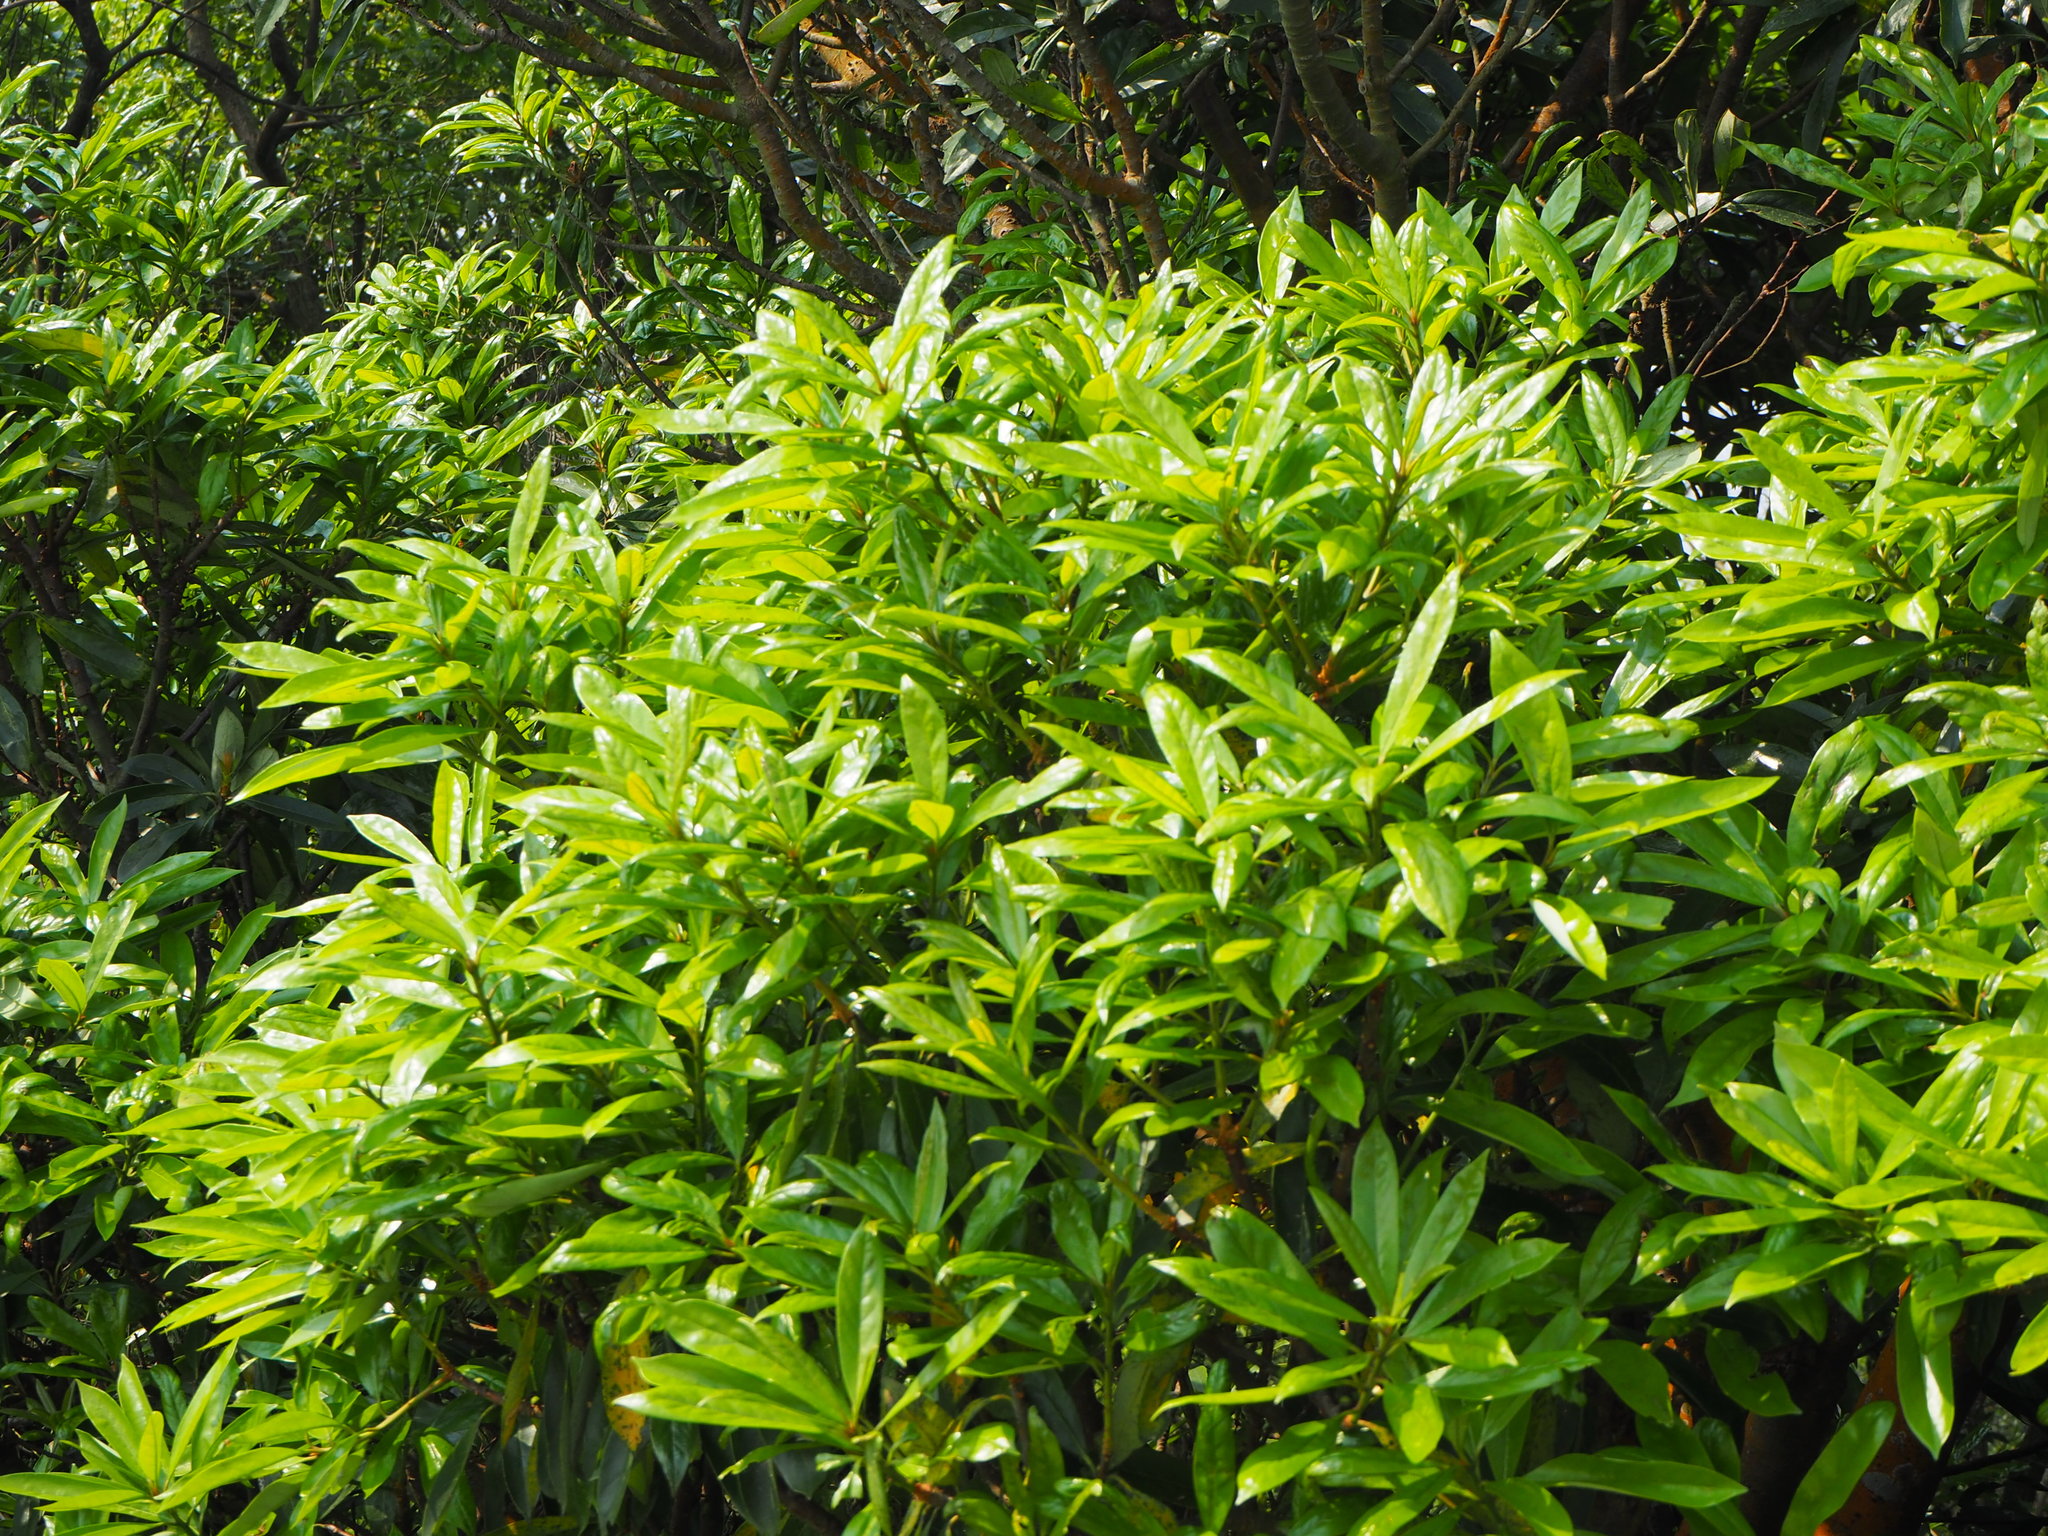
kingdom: Plantae
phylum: Tracheophyta
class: Magnoliopsida
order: Ericales
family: Symplocaceae
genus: Symplocos
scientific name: Symplocos glauca
